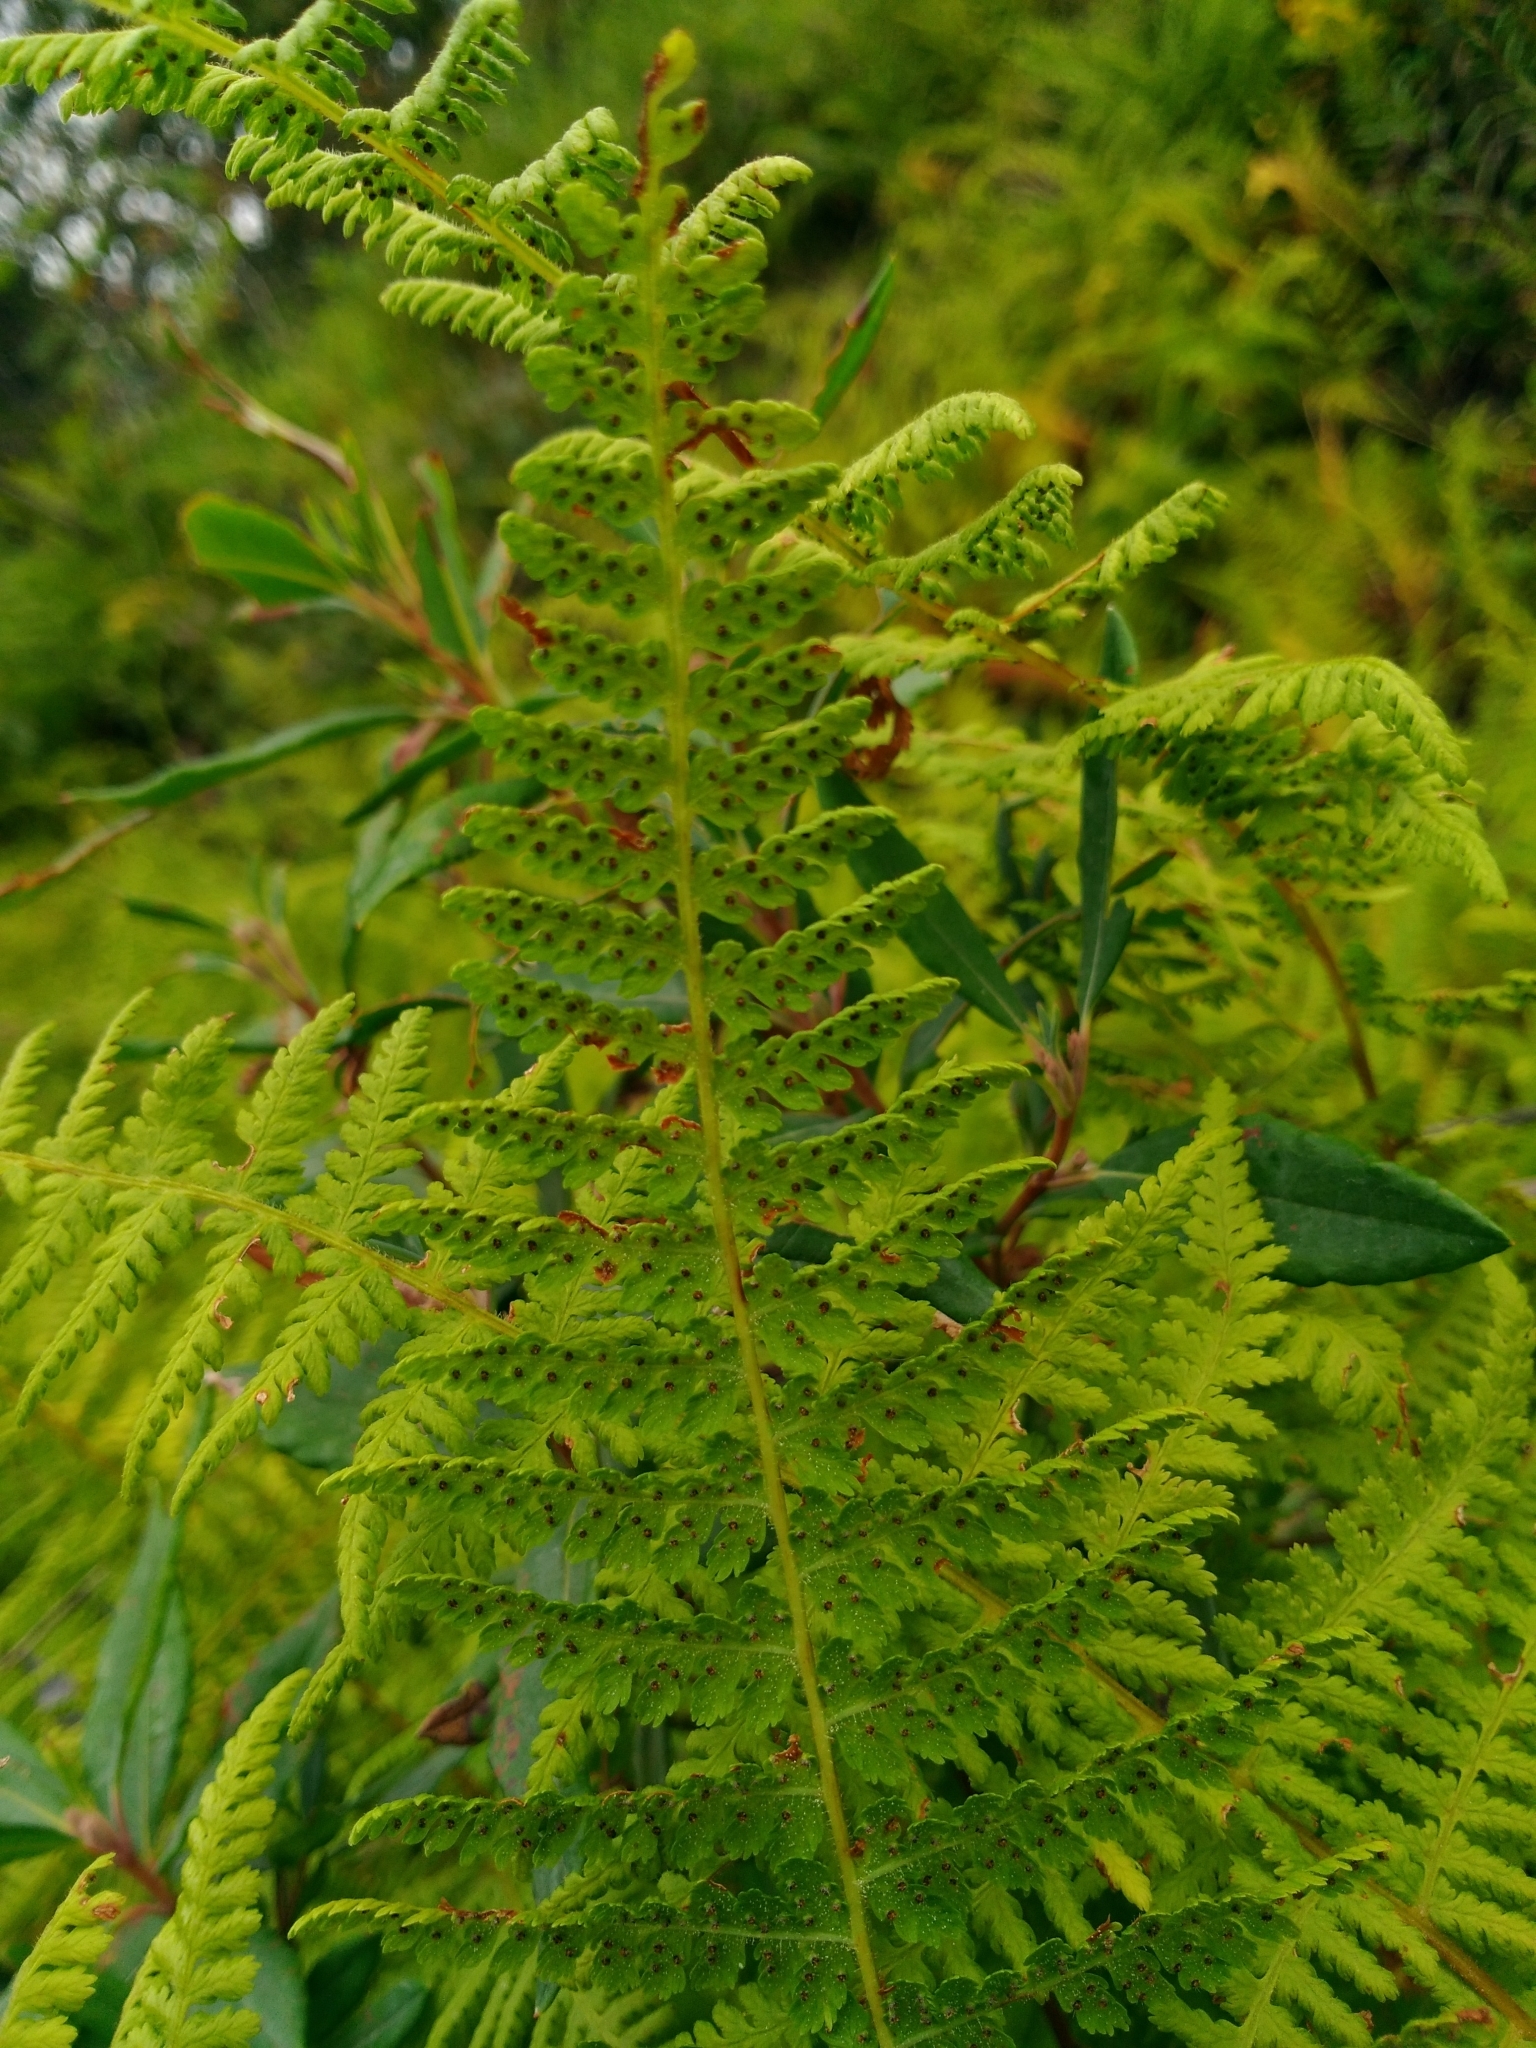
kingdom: Plantae
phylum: Tracheophyta
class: Polypodiopsida
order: Polypodiales
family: Dennstaedtiaceae
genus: Sitobolium
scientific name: Sitobolium punctilobum
